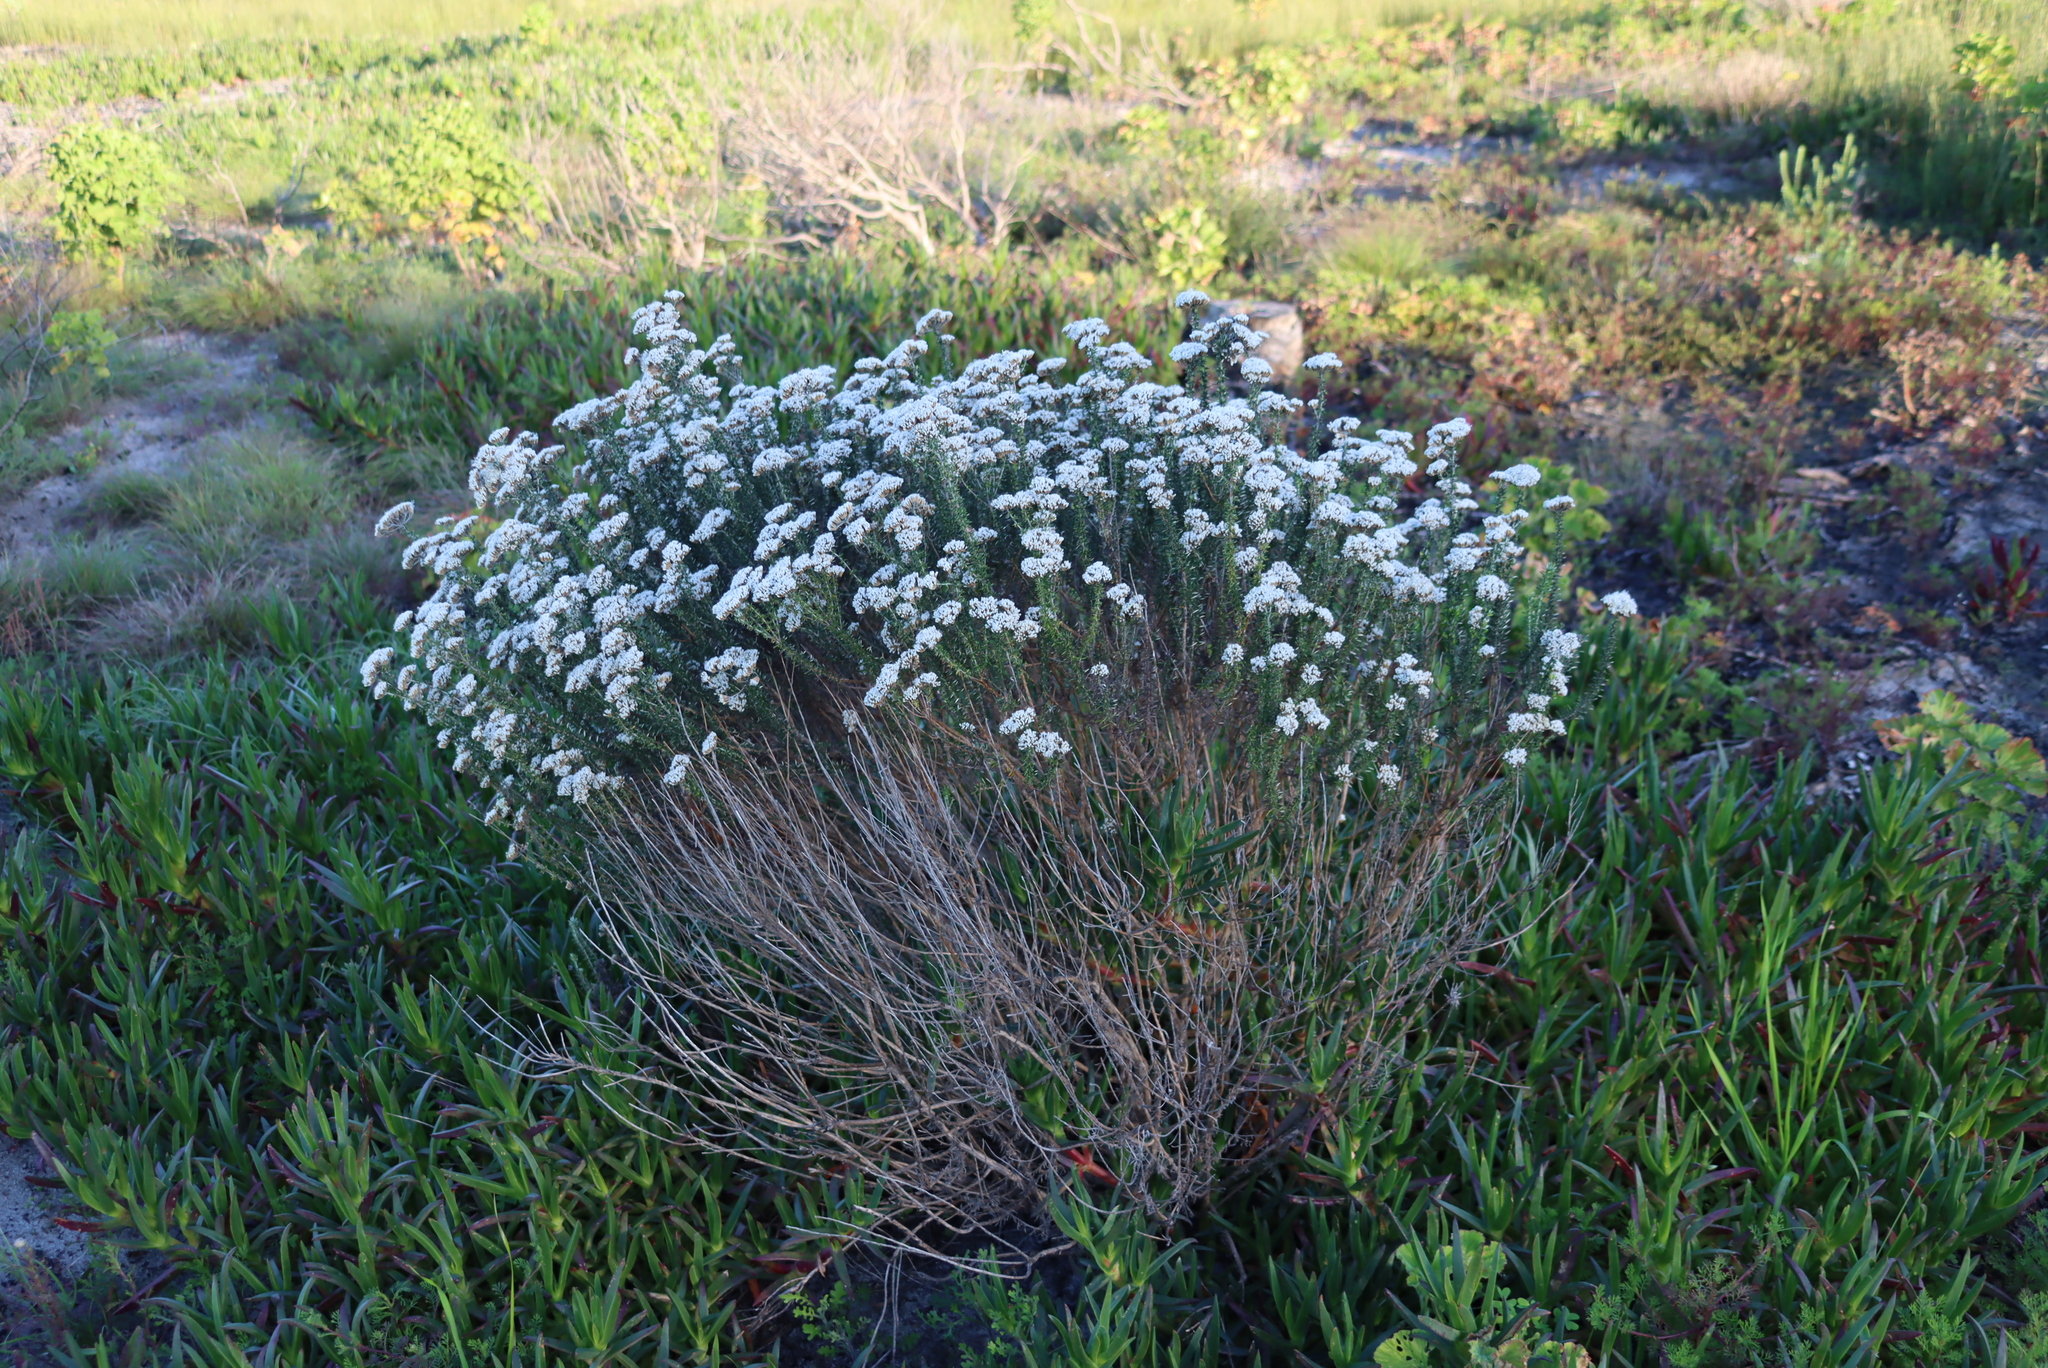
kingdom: Plantae
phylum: Tracheophyta
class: Magnoliopsida
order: Asterales
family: Asteraceae
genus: Metalasia
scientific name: Metalasia densa
